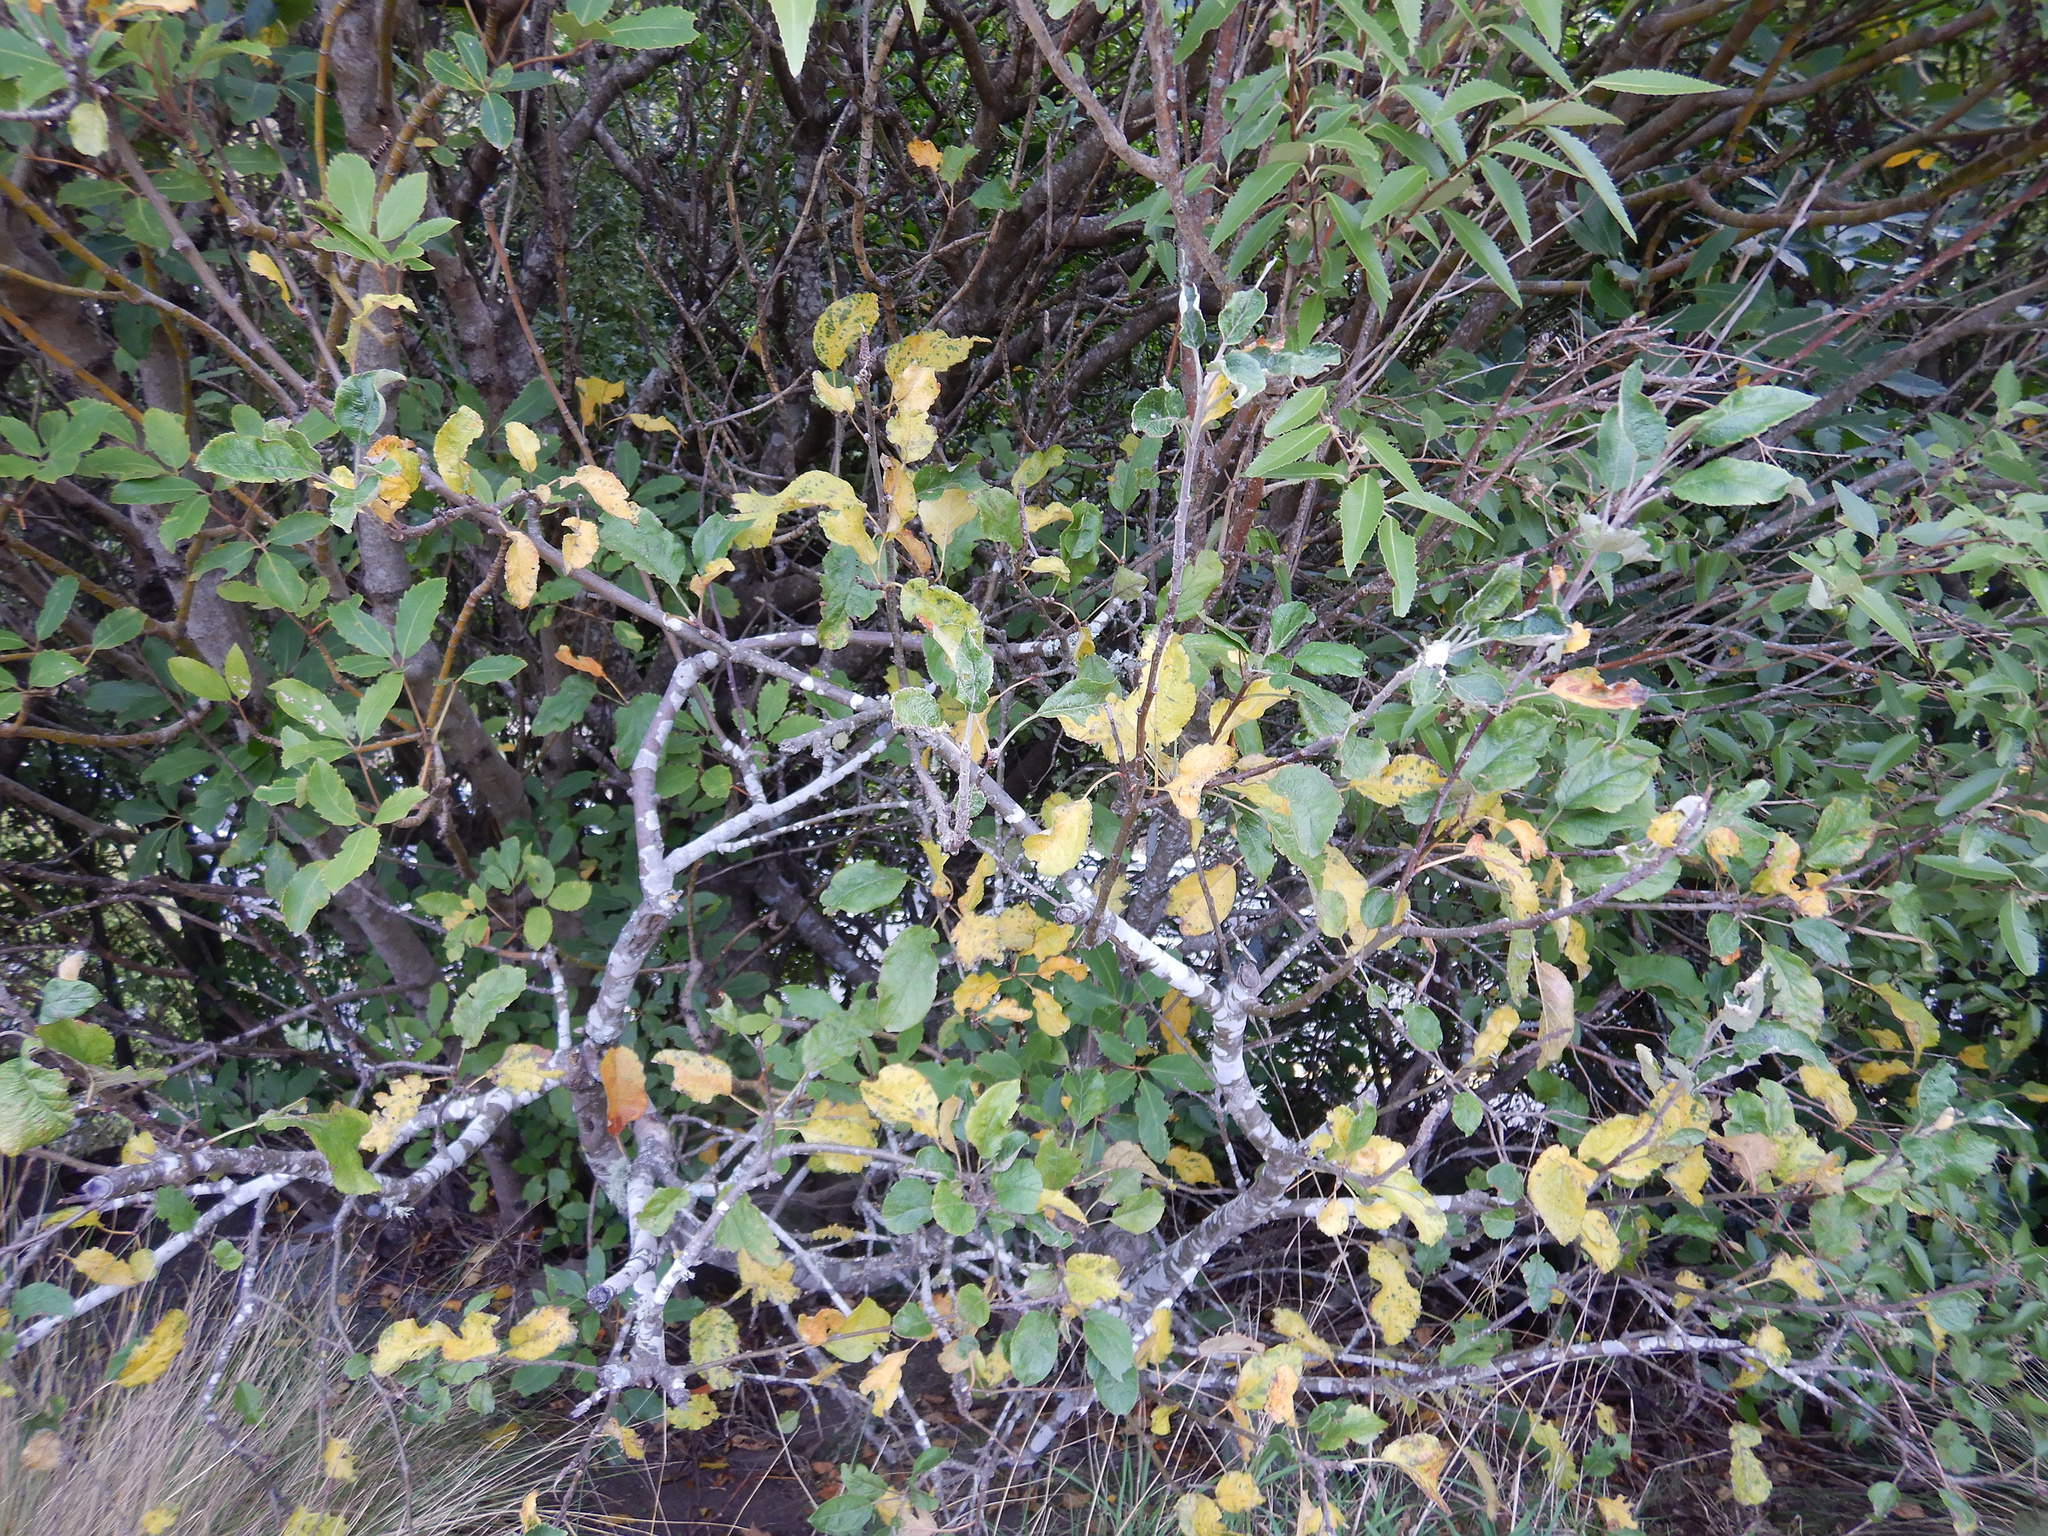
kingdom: Plantae
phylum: Tracheophyta
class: Magnoliopsida
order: Rosales
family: Rosaceae
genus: Malus
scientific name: Malus domestica
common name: Apple
